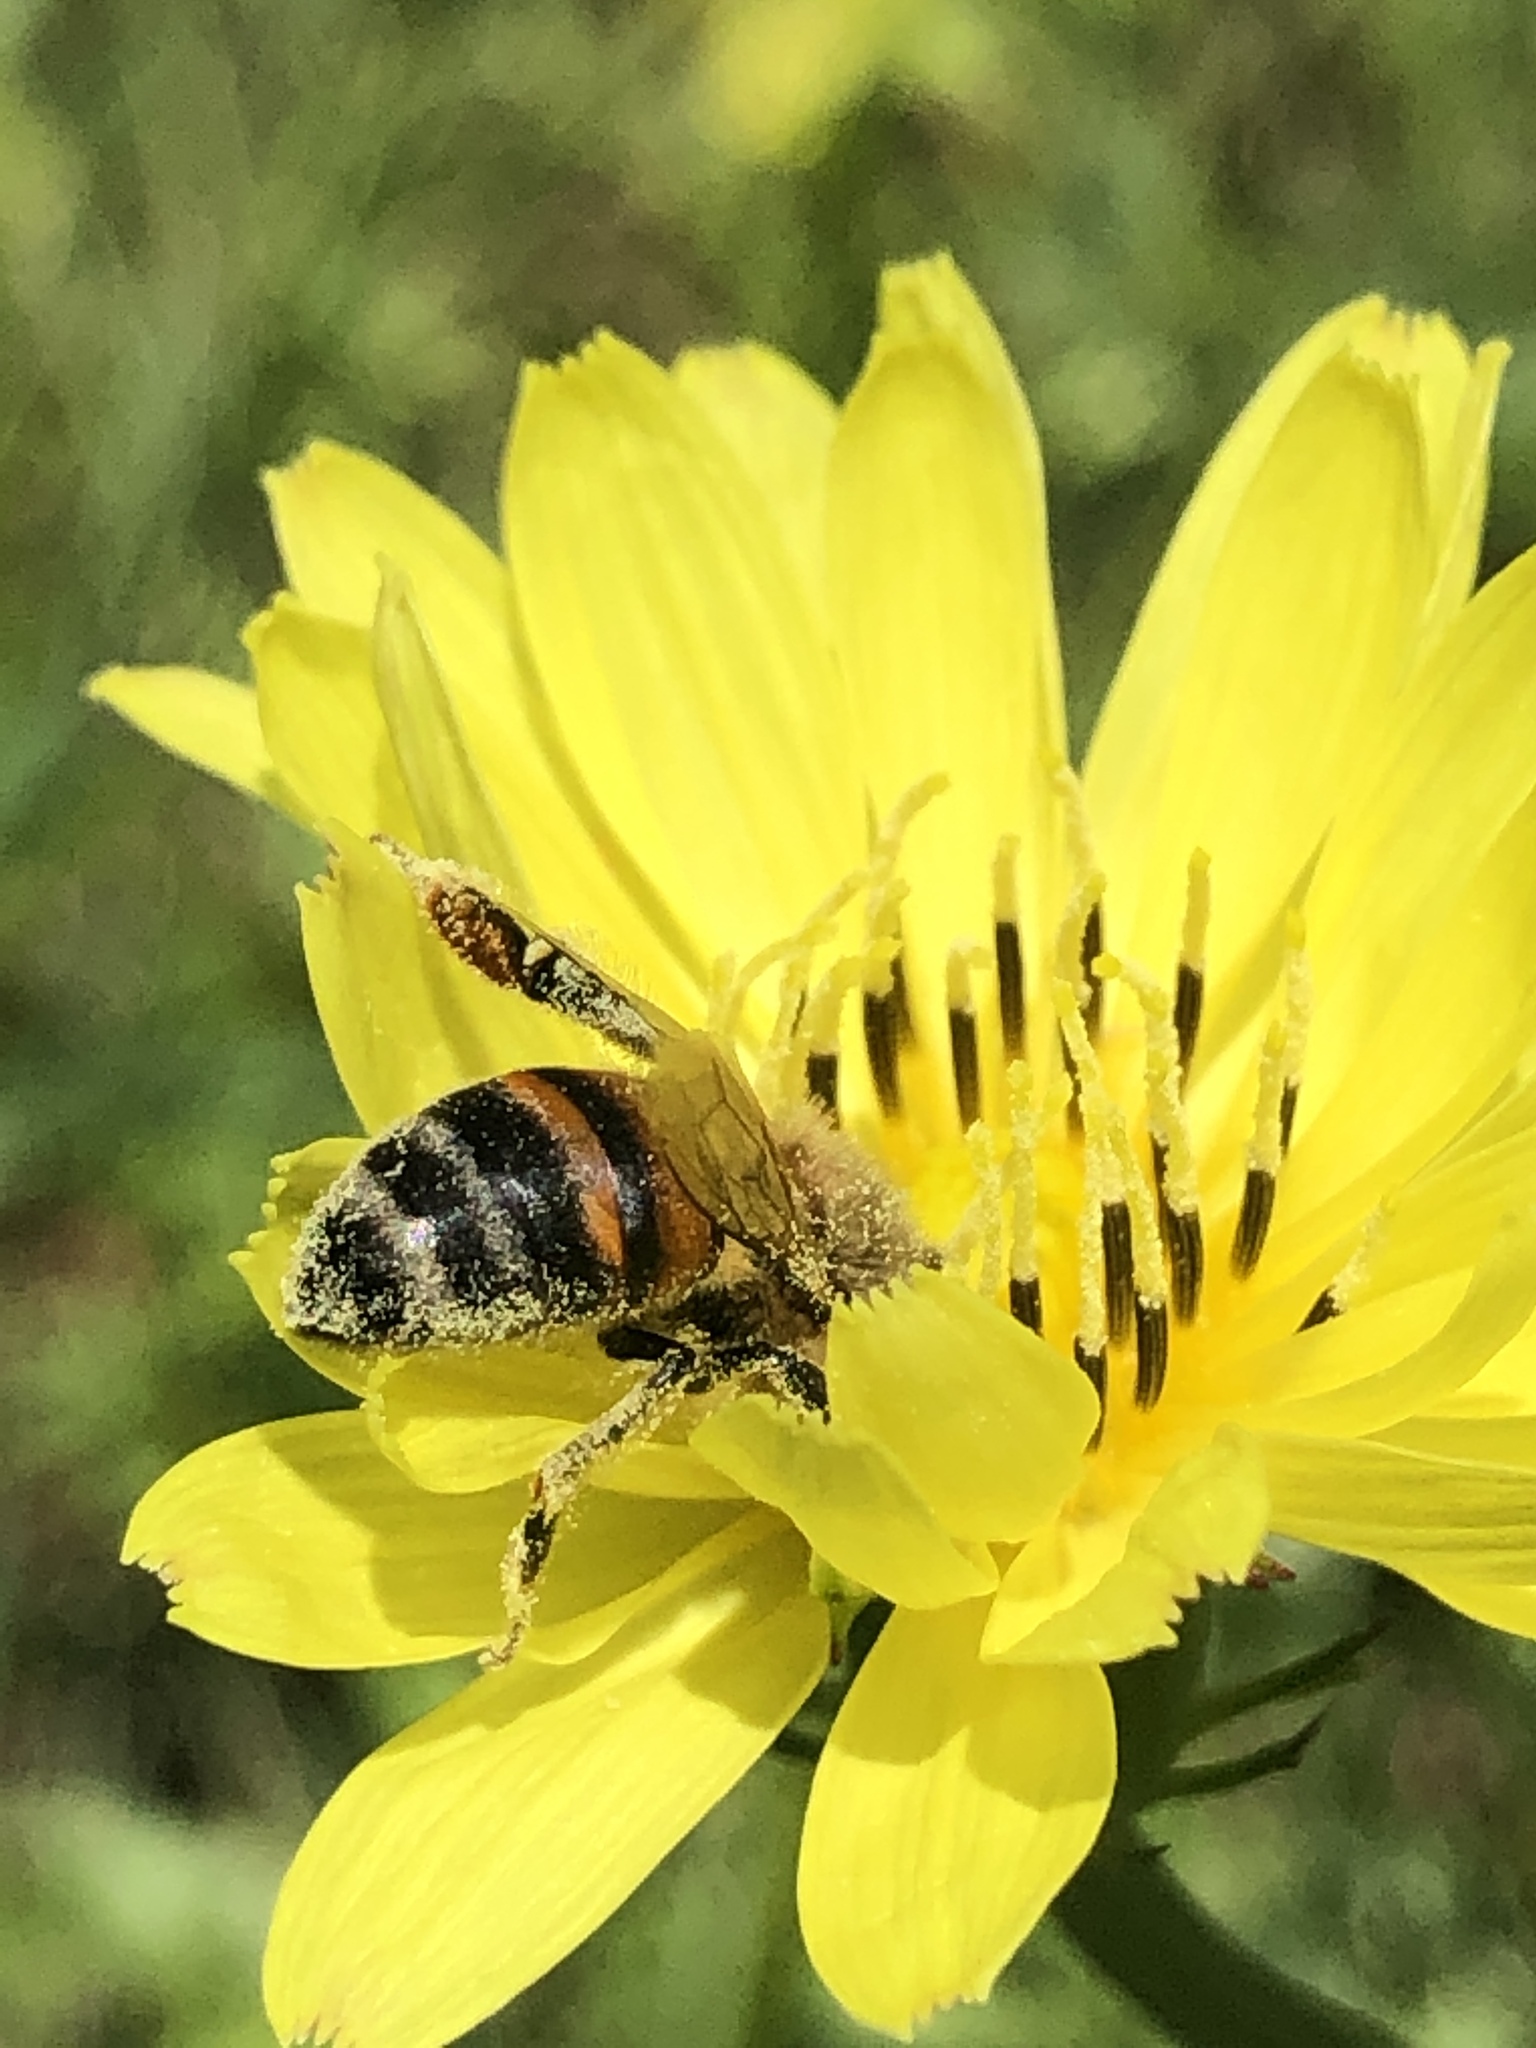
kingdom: Animalia
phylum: Arthropoda
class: Insecta
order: Hymenoptera
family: Apidae
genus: Apis
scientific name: Apis mellifera
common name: Honey bee
